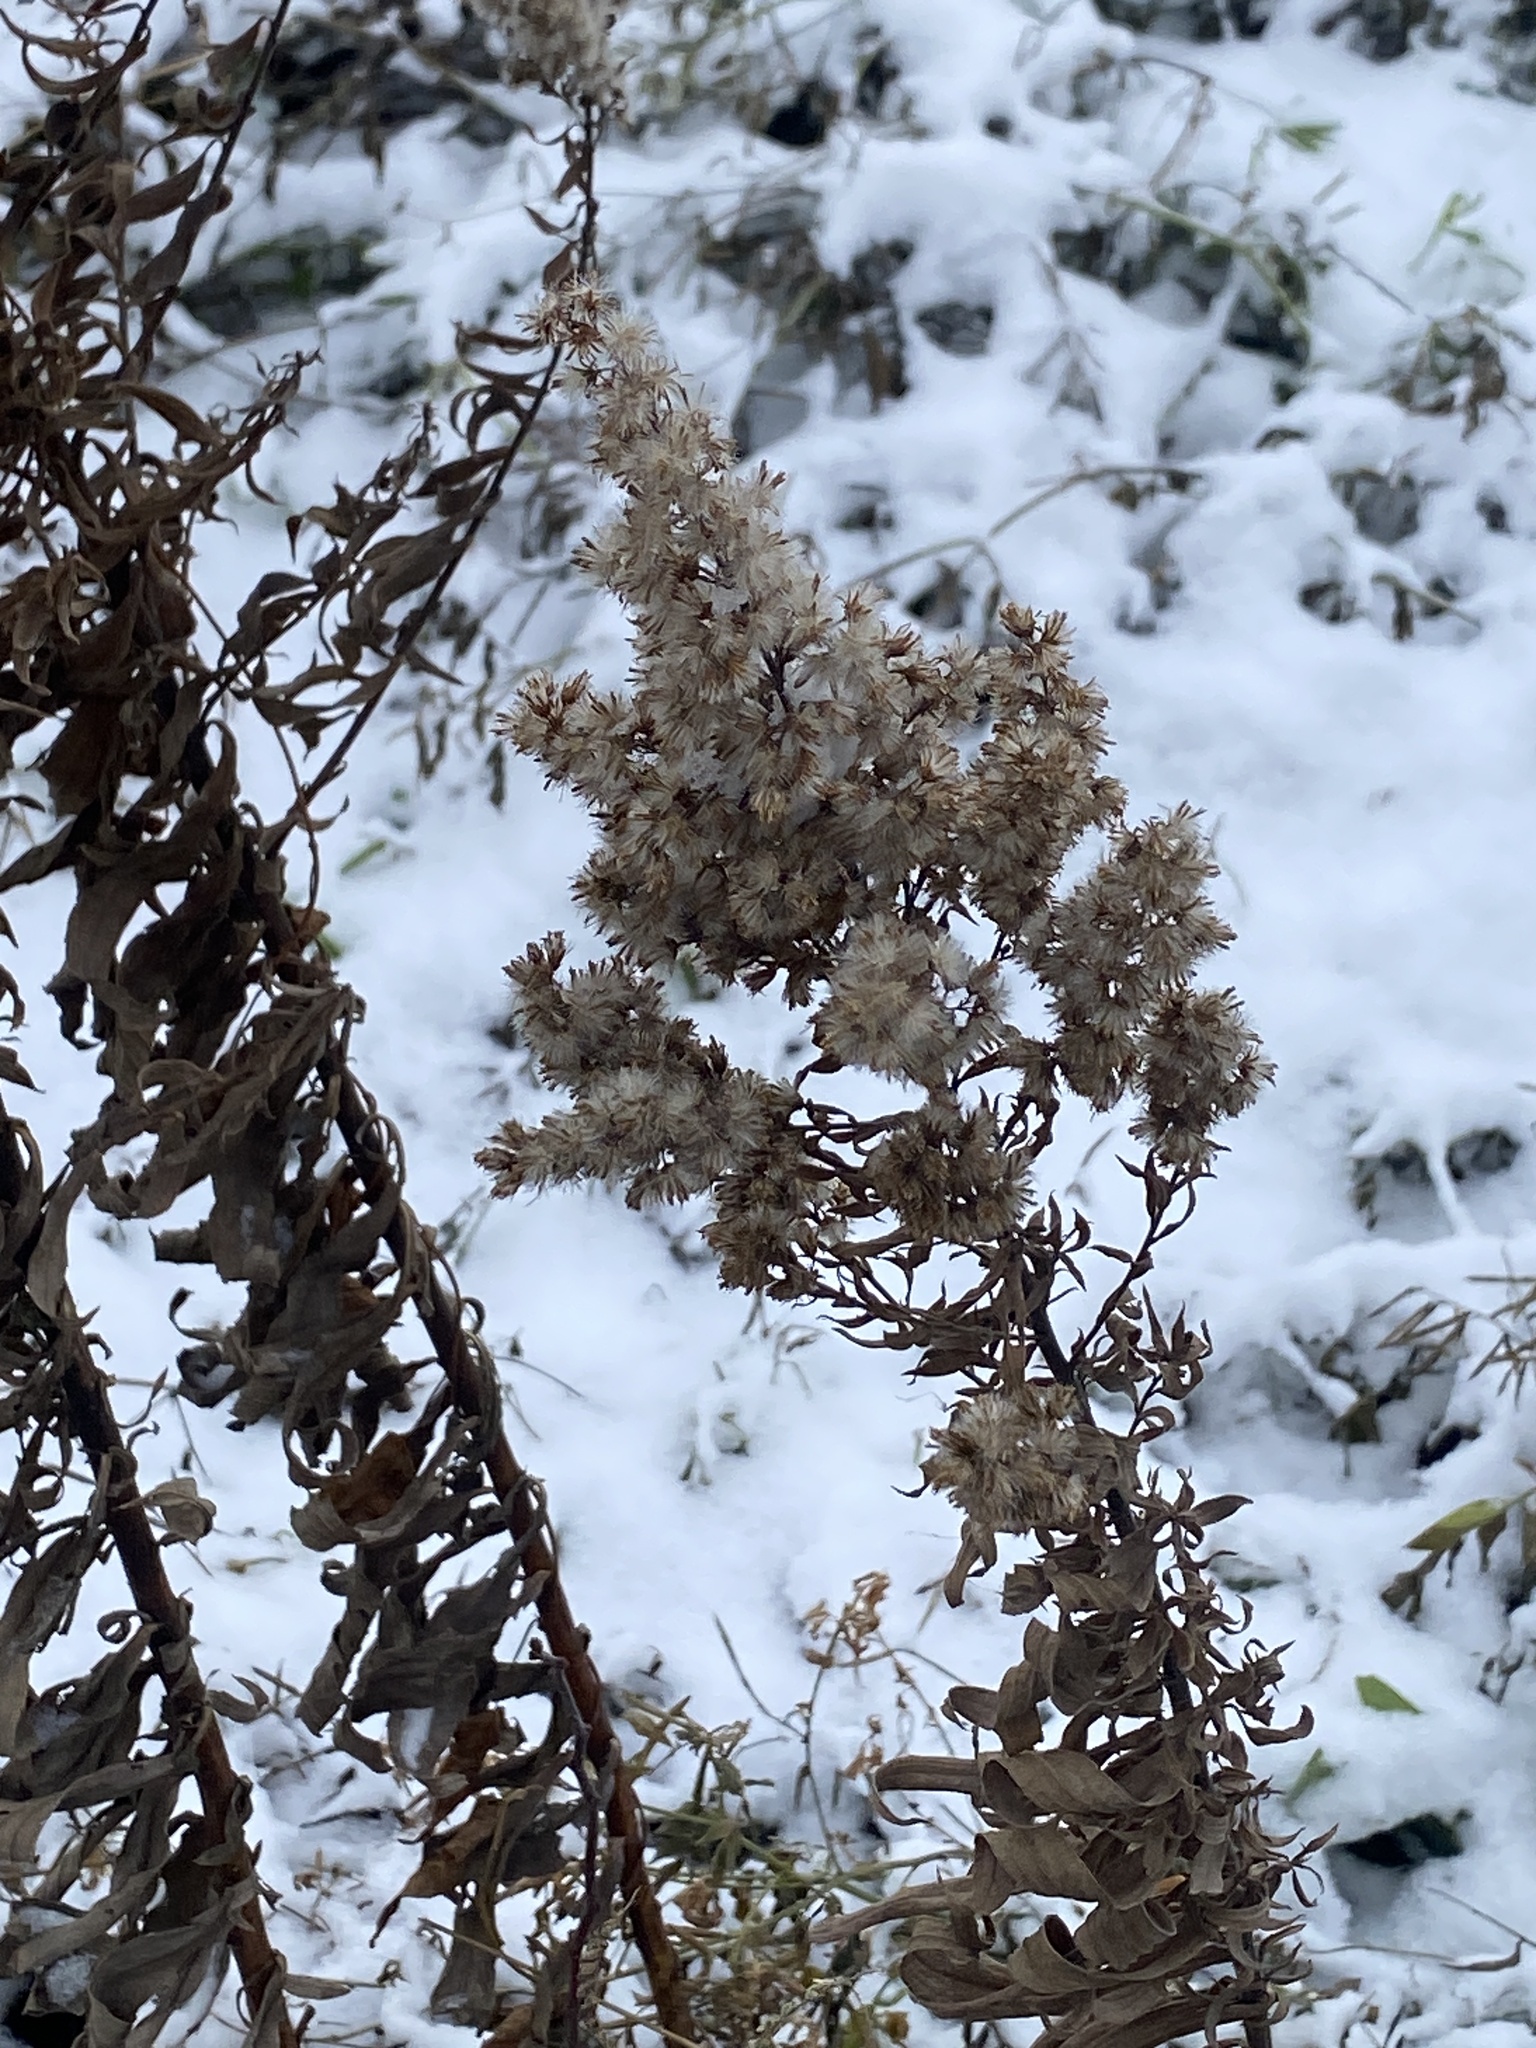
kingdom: Plantae
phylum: Tracheophyta
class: Magnoliopsida
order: Asterales
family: Asteraceae
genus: Solidago
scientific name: Solidago altissima
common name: Late goldenrod
